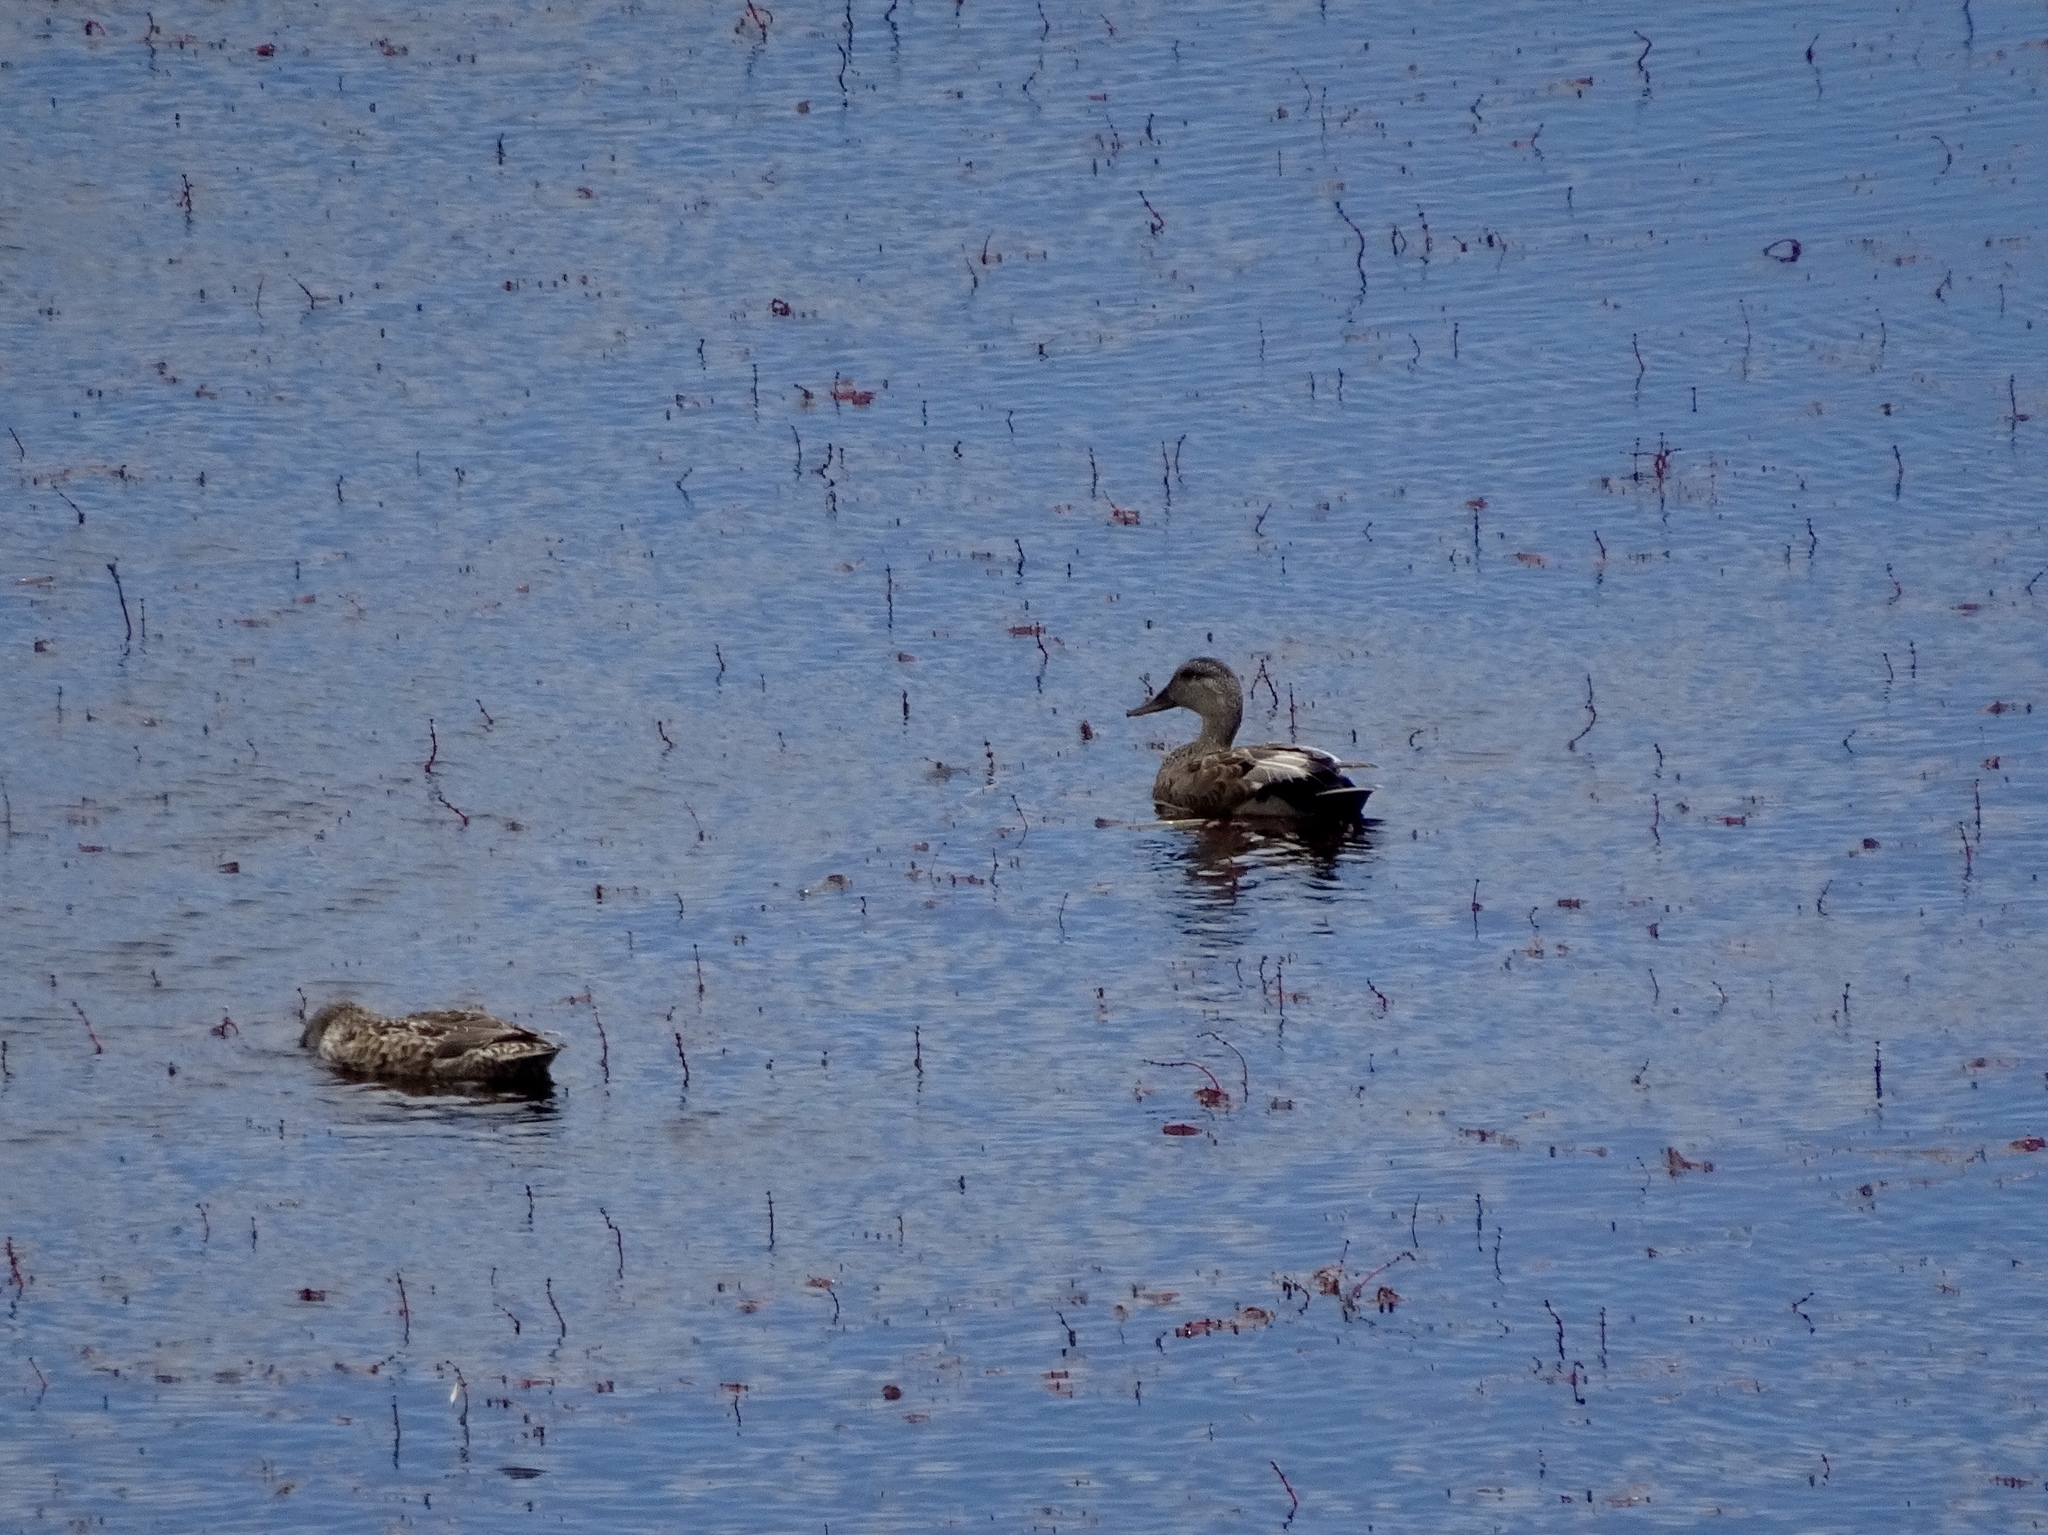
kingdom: Animalia
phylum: Chordata
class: Aves
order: Anseriformes
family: Anatidae
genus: Mareca
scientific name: Mareca strepera
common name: Gadwall
